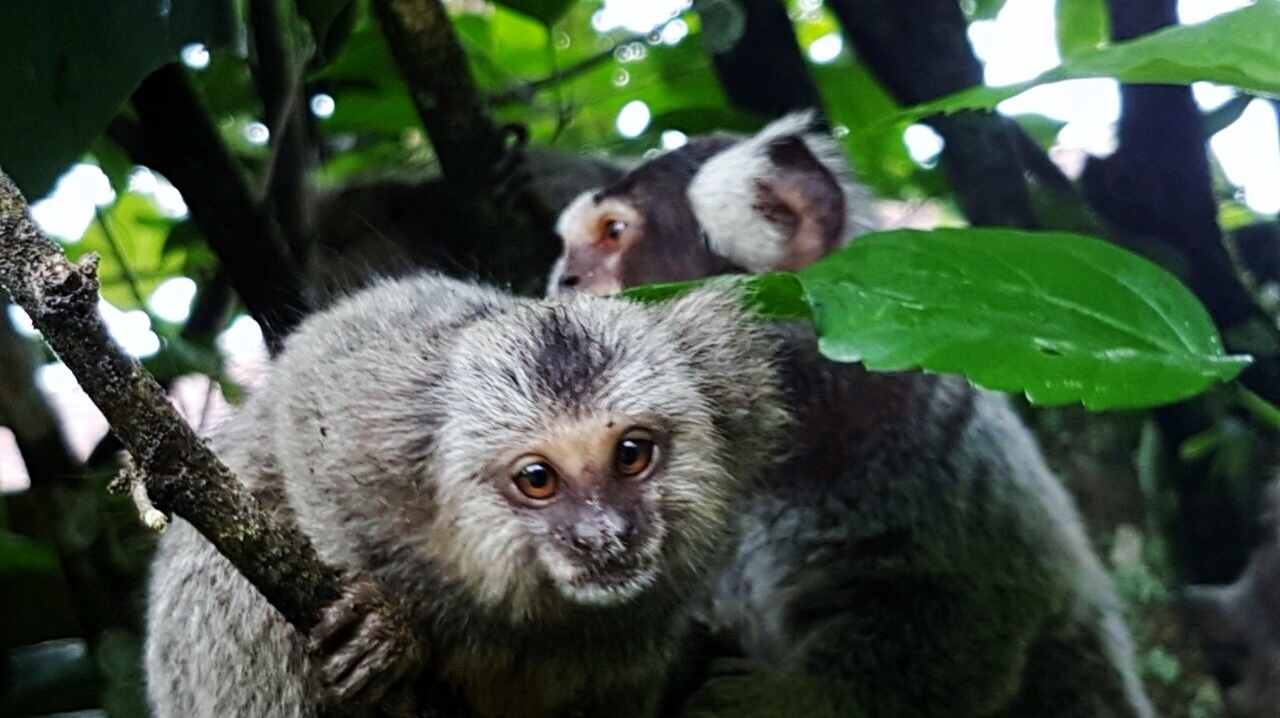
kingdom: Animalia
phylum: Chordata
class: Mammalia
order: Primates
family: Callitrichidae
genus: Callithrix
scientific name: Callithrix jacchus
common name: Common marmoset
